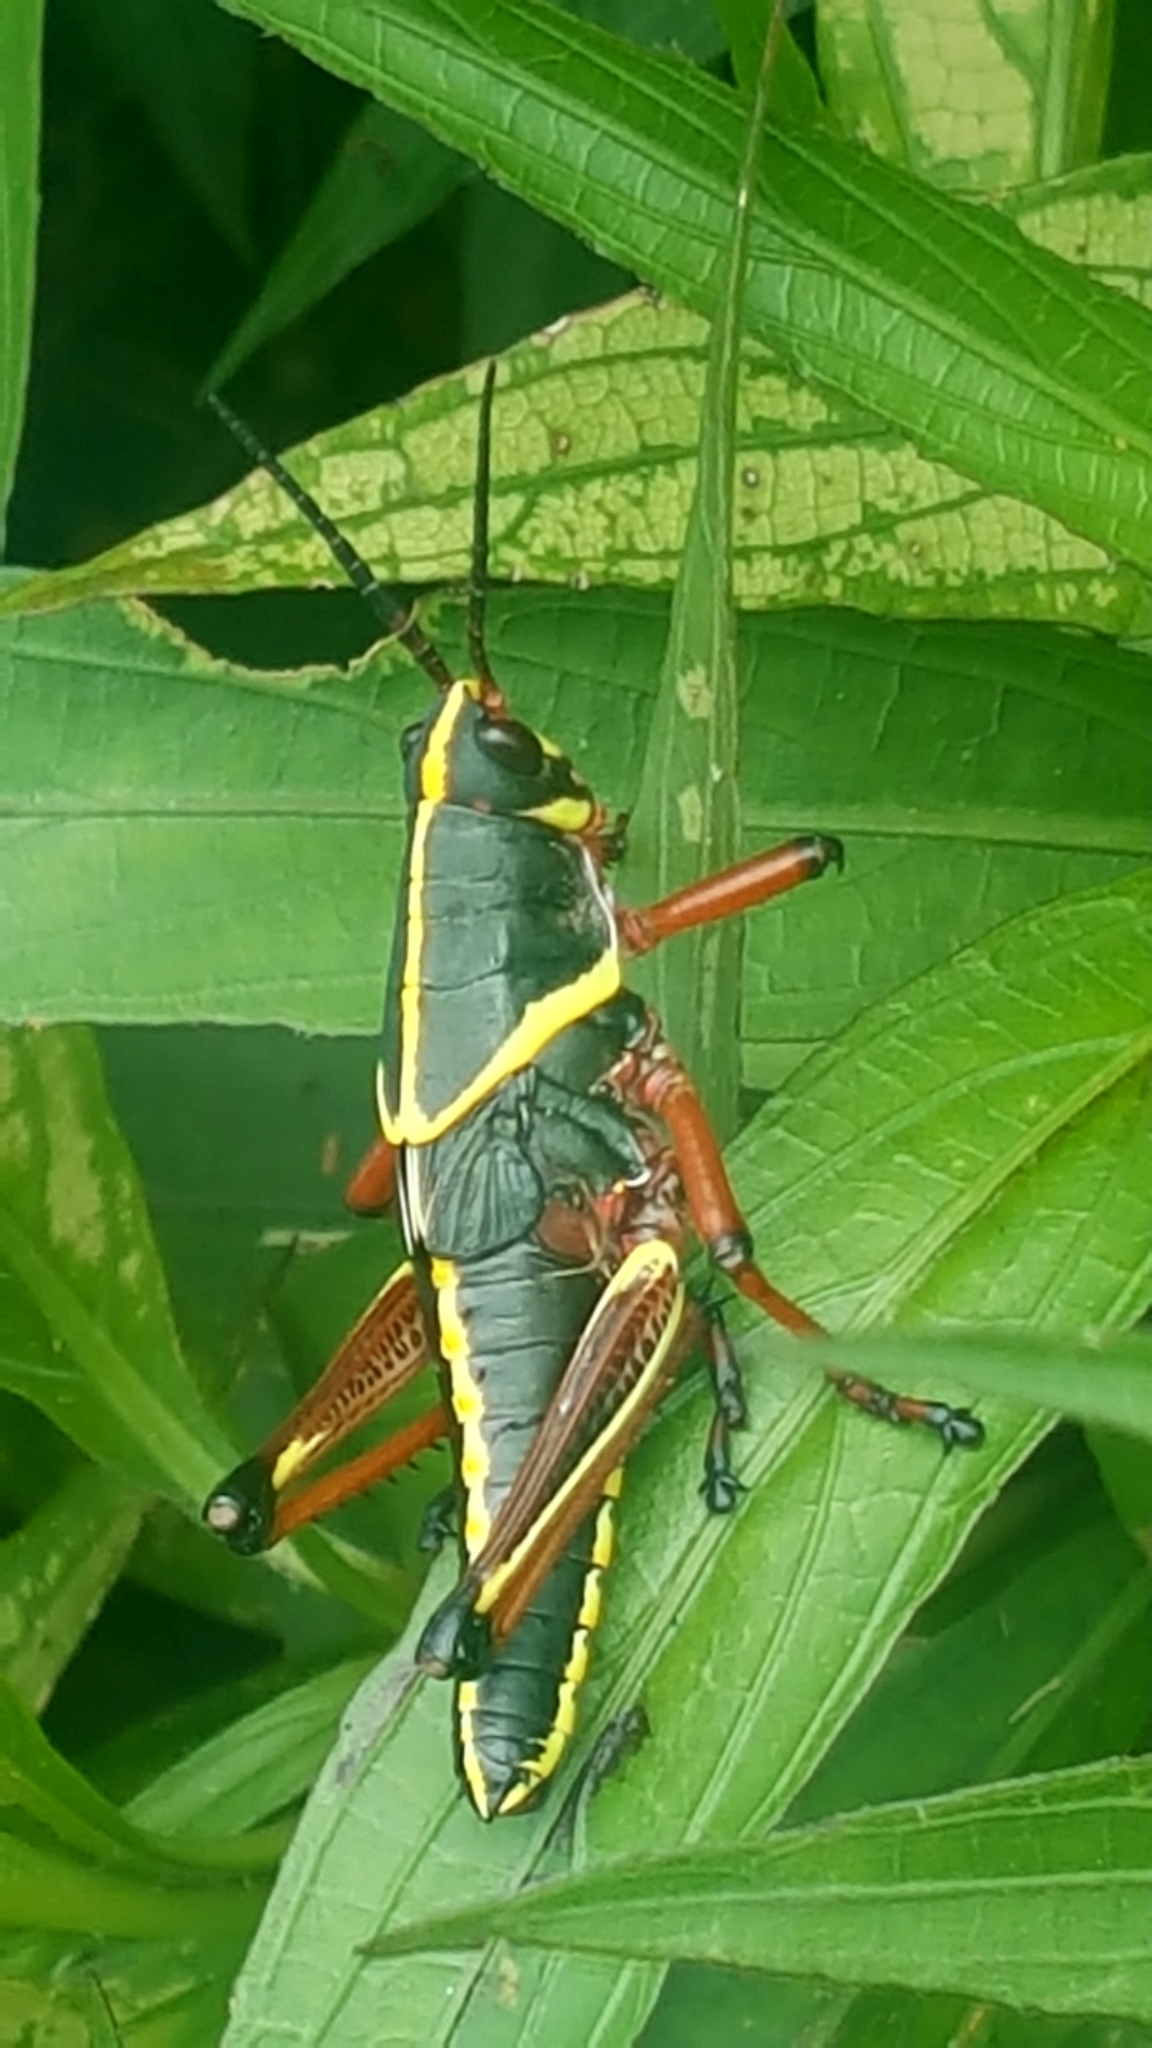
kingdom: Animalia
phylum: Arthropoda
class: Insecta
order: Orthoptera
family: Romaleidae
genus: Romalea
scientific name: Romalea microptera
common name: Eastern lubber grasshopper
